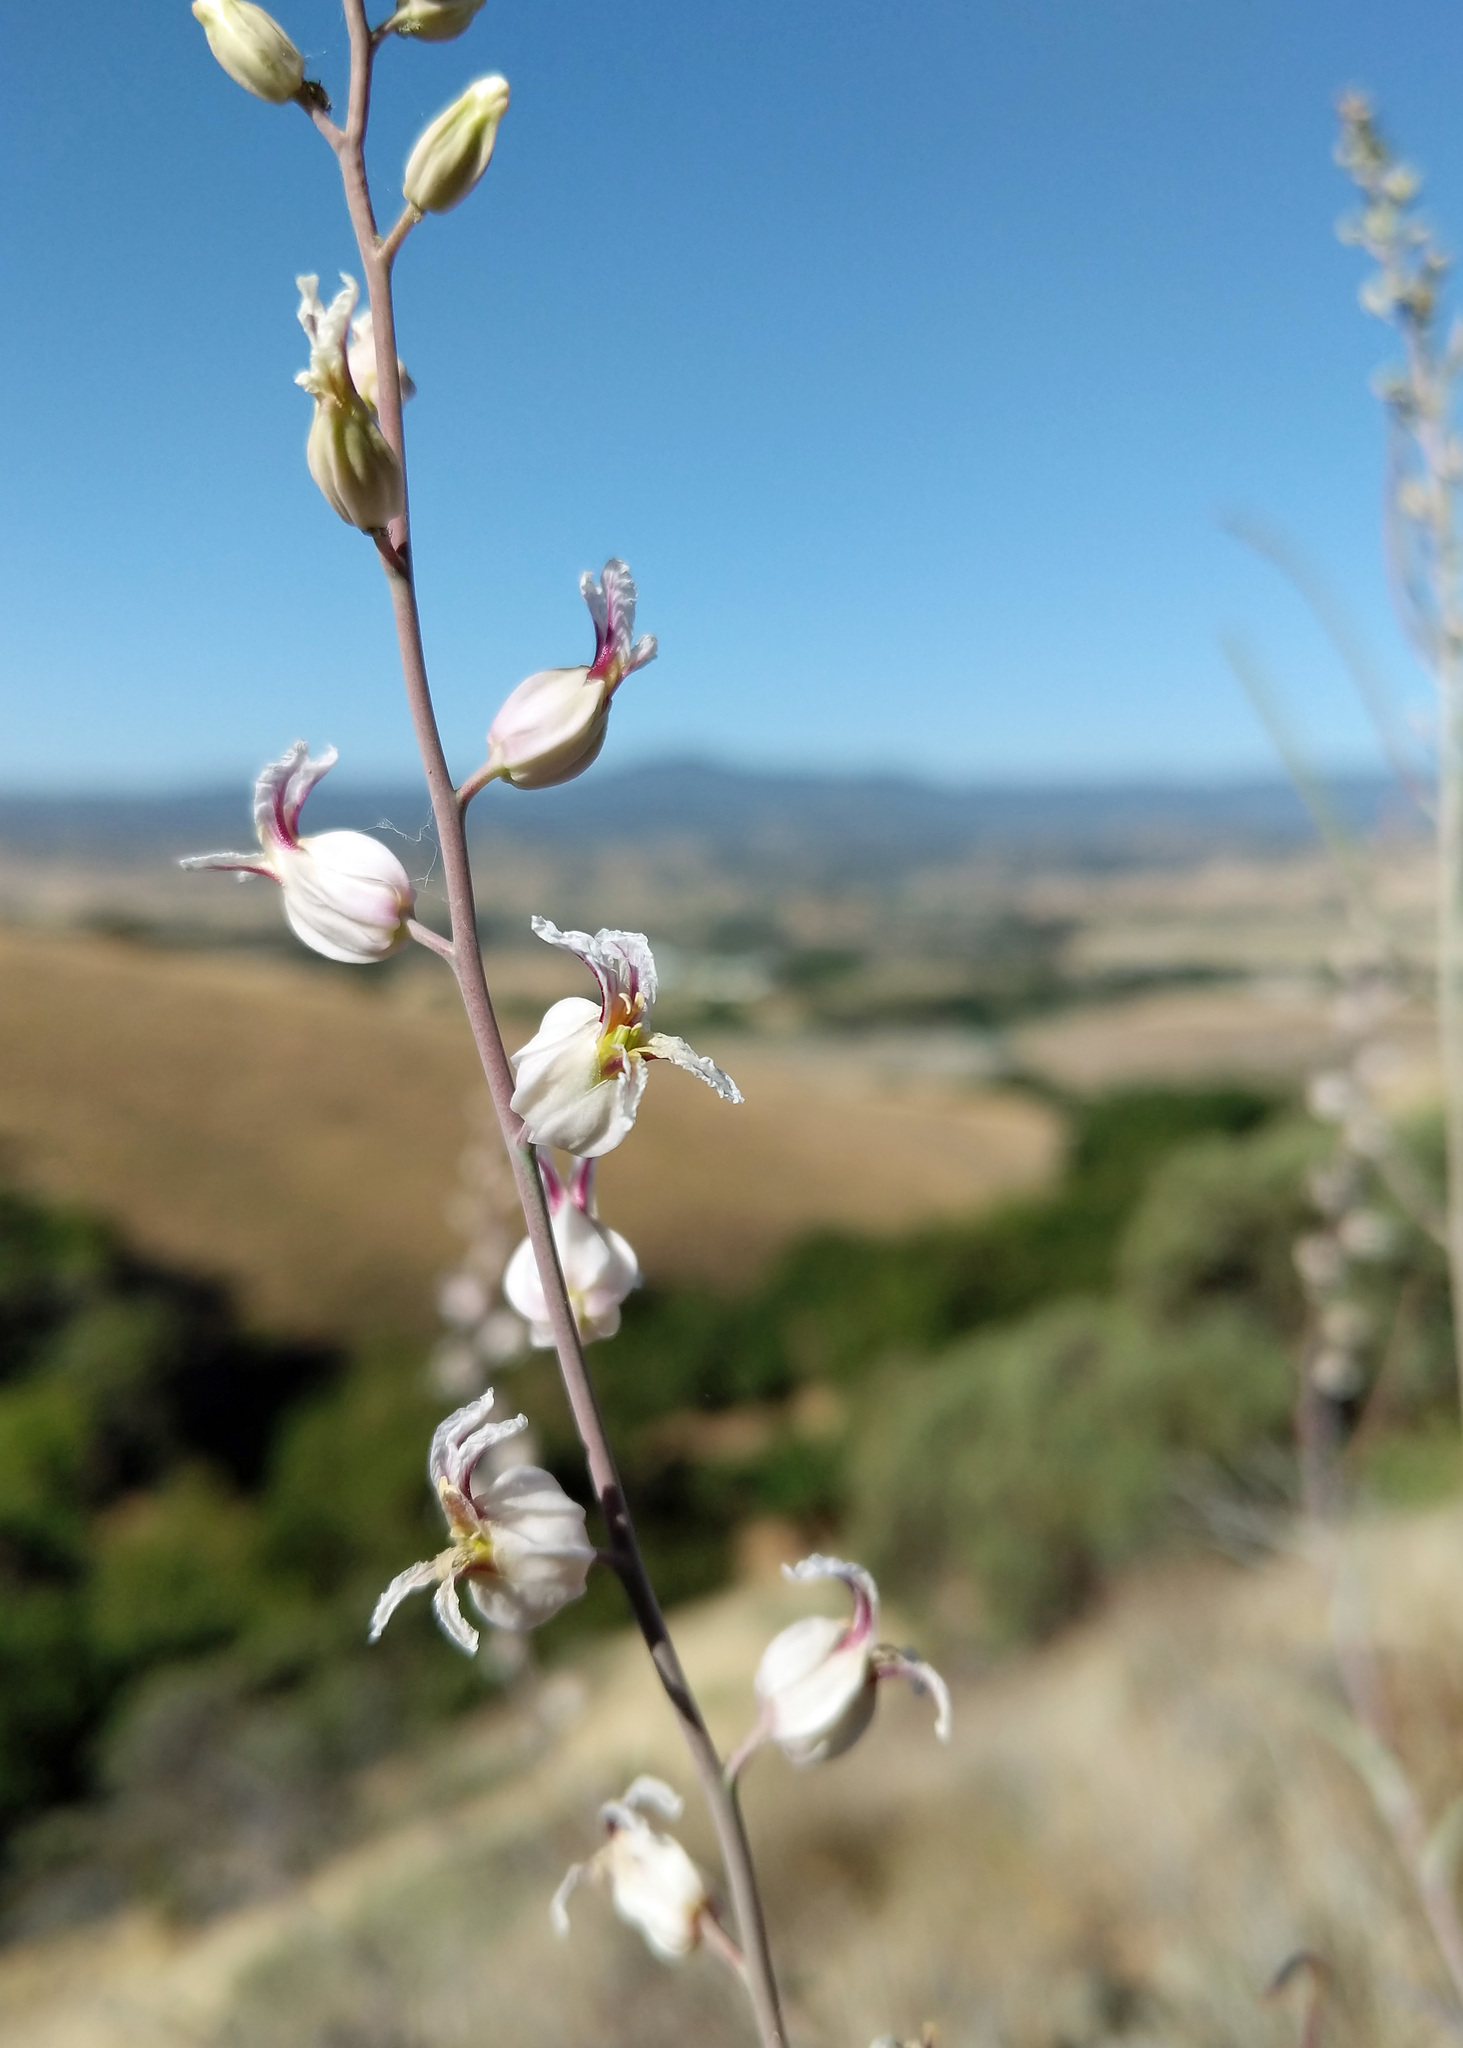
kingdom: Plantae
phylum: Tracheophyta
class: Magnoliopsida
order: Brassicales
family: Brassicaceae
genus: Streptanthus
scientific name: Streptanthus glandulosus
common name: Jewel-flower
